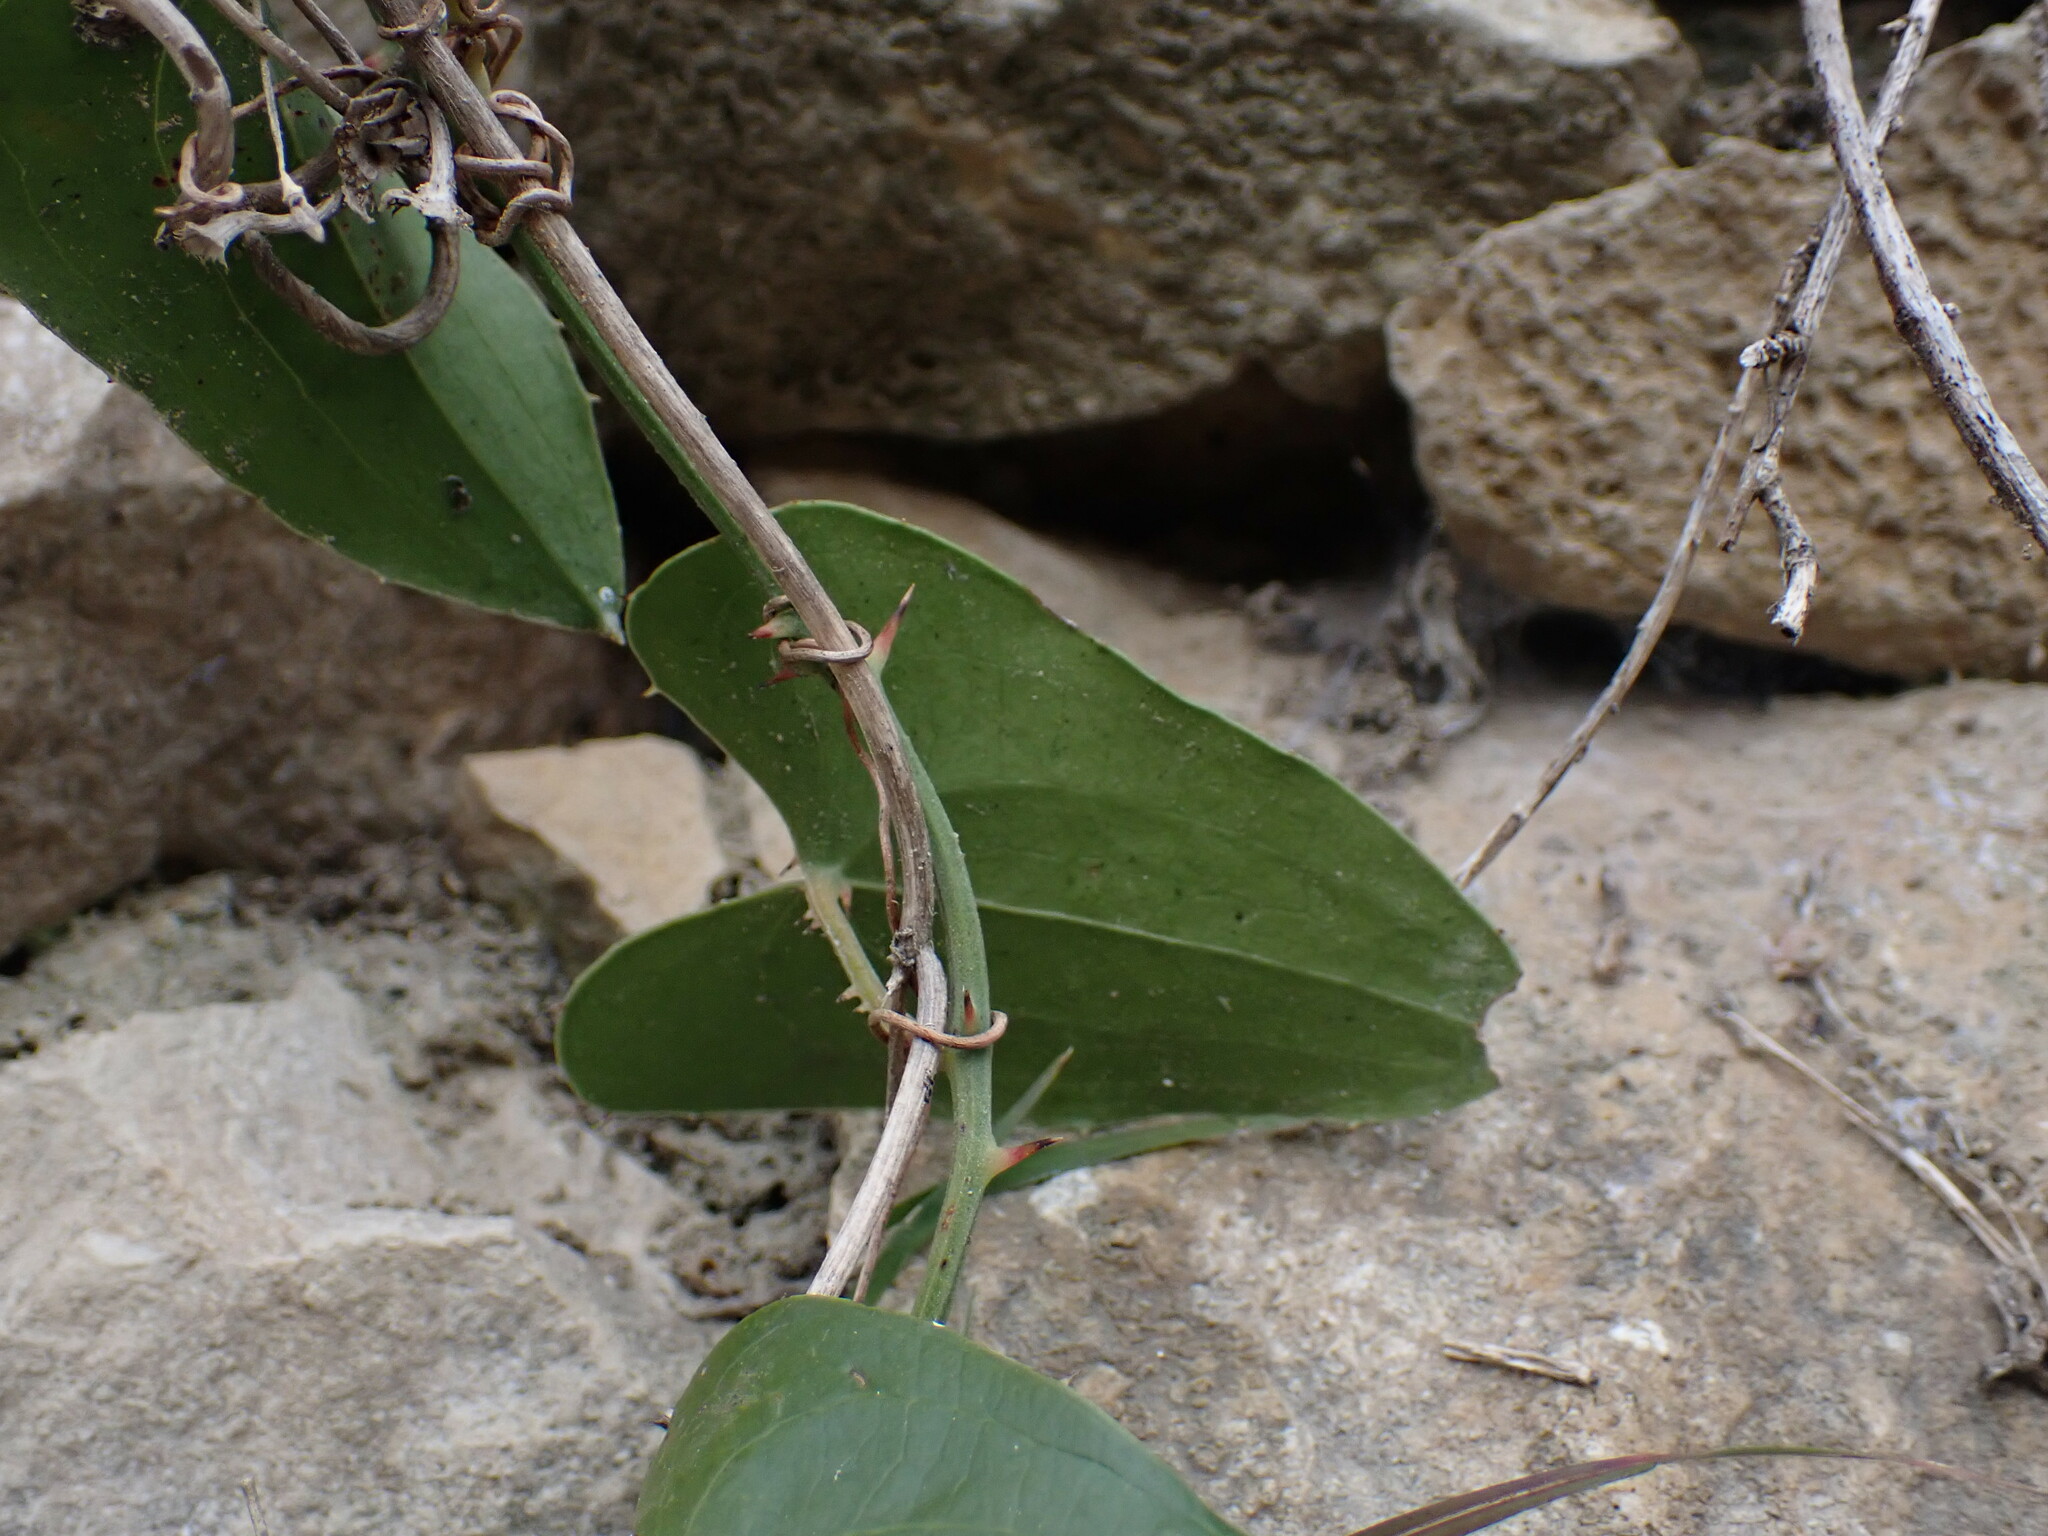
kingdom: Plantae
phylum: Tracheophyta
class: Liliopsida
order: Liliales
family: Smilacaceae
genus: Smilax
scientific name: Smilax aspera
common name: Common smilax
